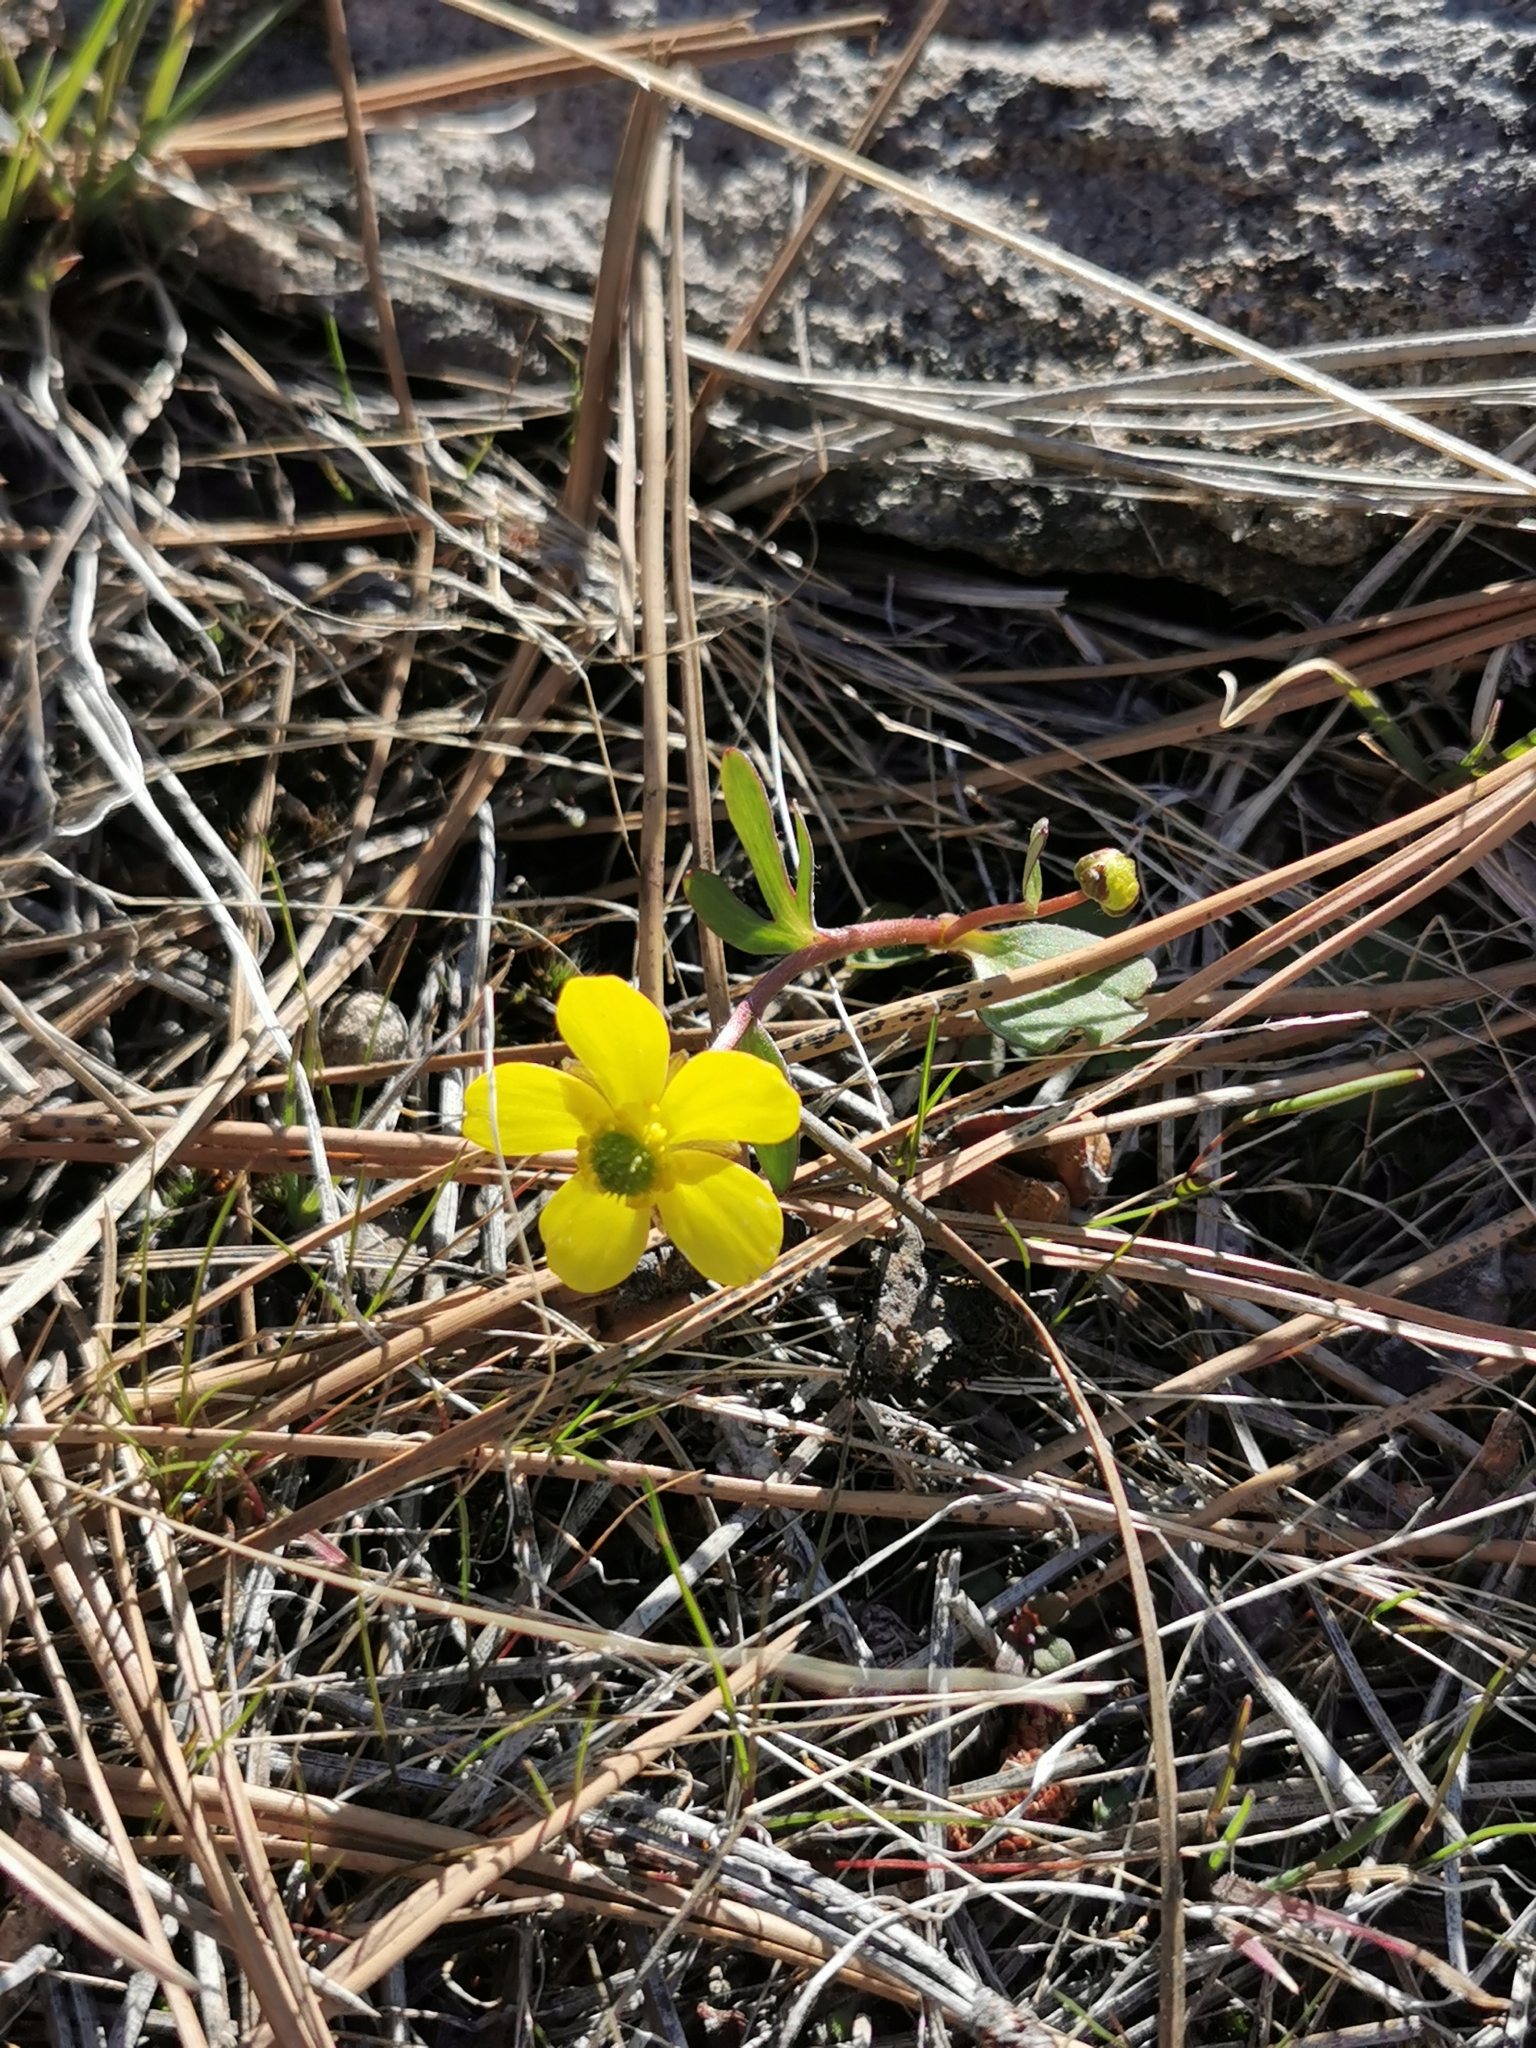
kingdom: Plantae
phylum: Tracheophyta
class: Magnoliopsida
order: Ranunculales
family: Ranunculaceae
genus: Ranunculus
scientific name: Ranunculus glaberrimus
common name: Sagebrush buttercup
